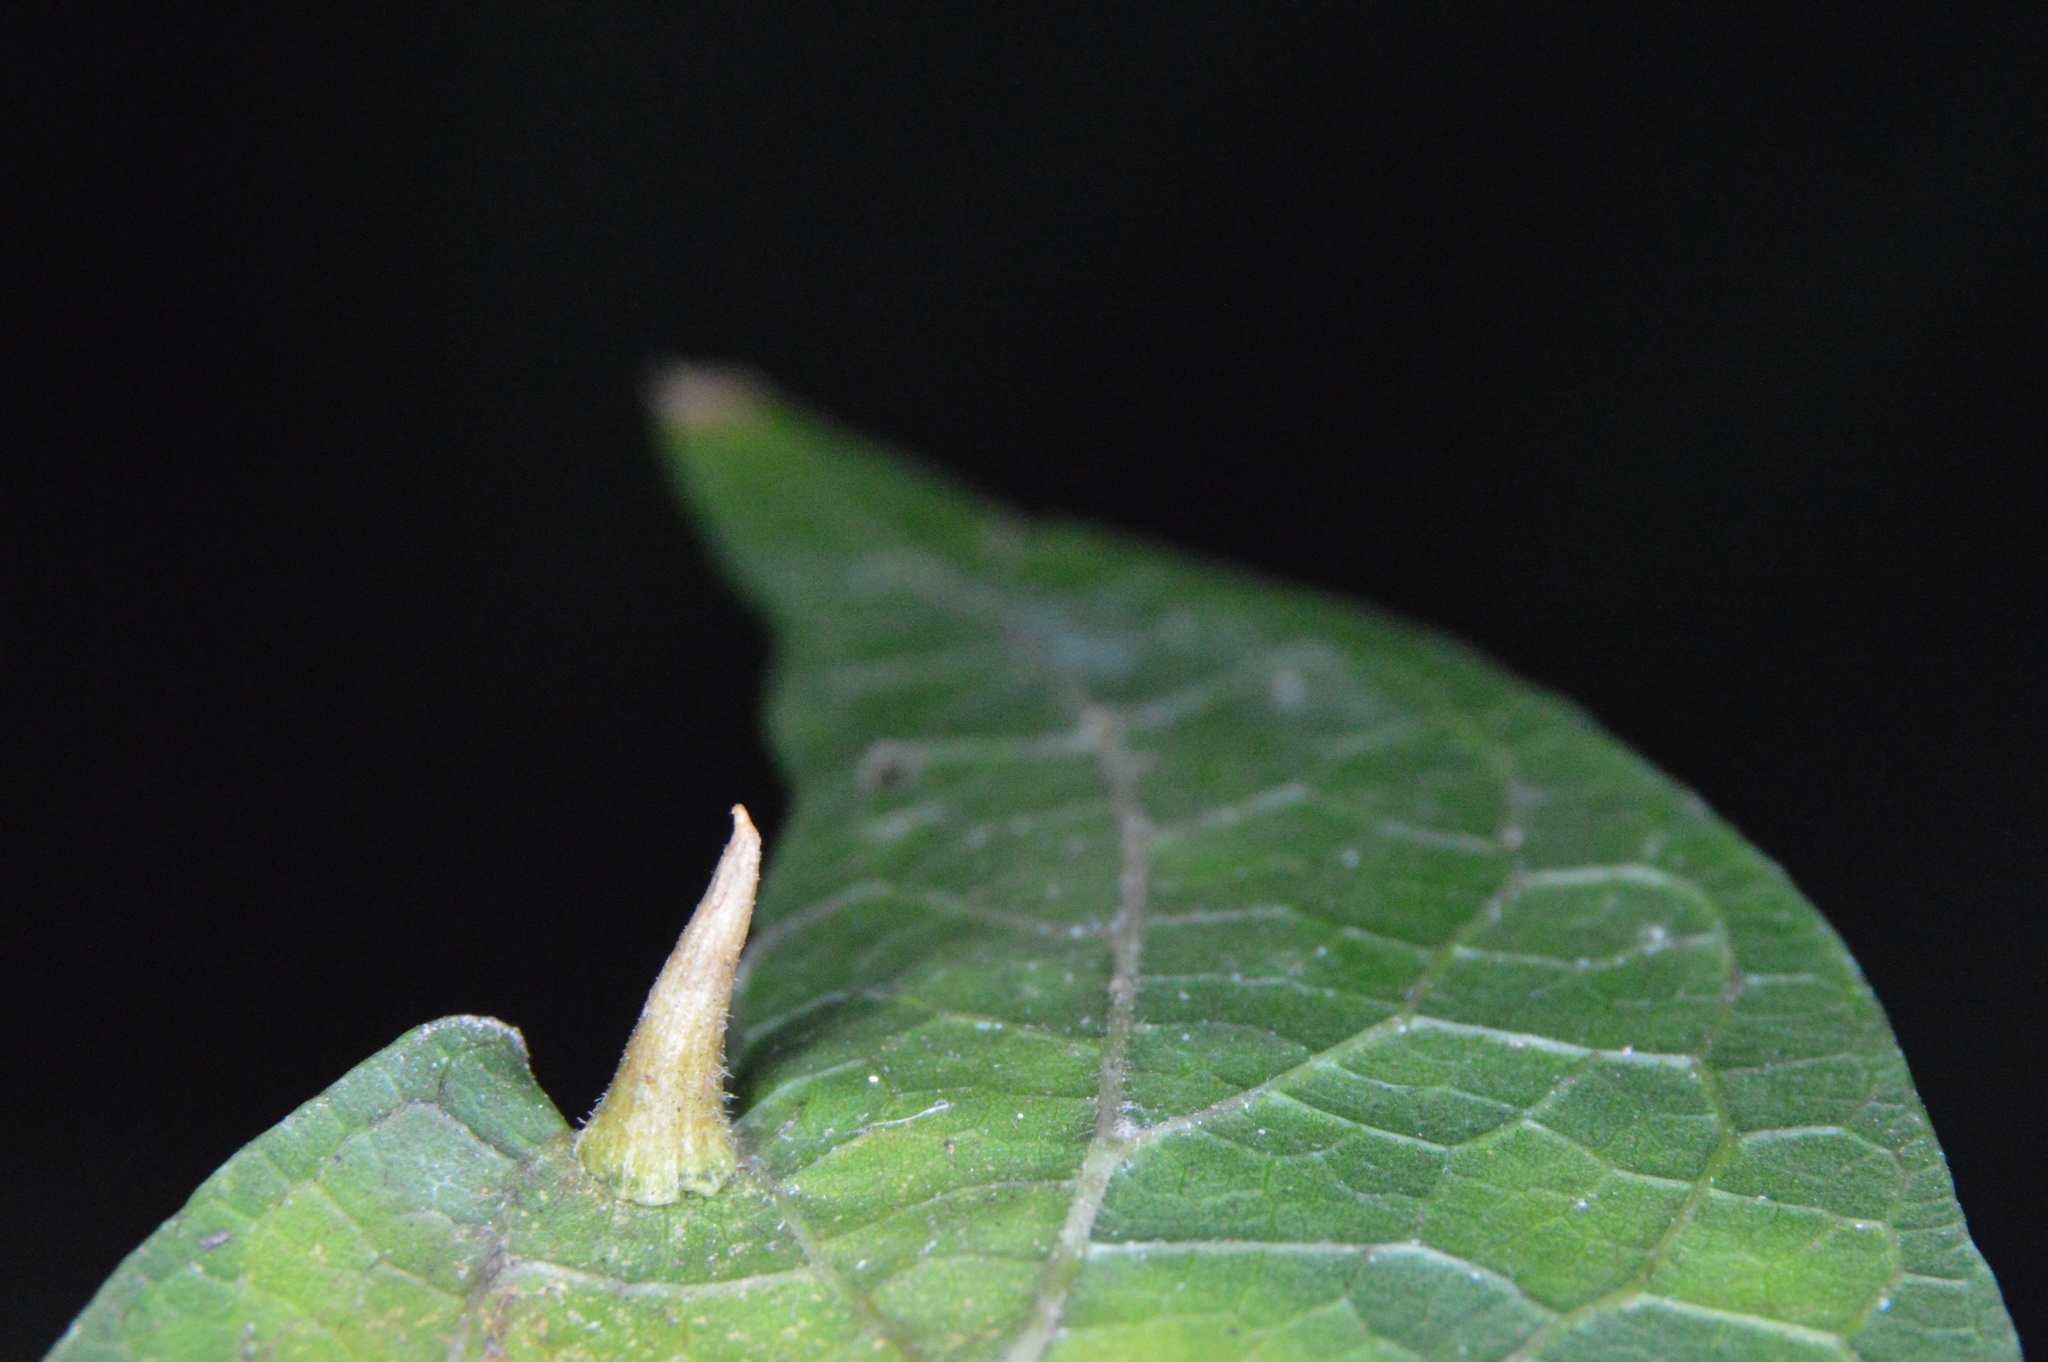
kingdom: Animalia
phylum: Arthropoda
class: Insecta
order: Diptera
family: Cecidomyiidae
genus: Celticecis
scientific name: Celticecis subulata
